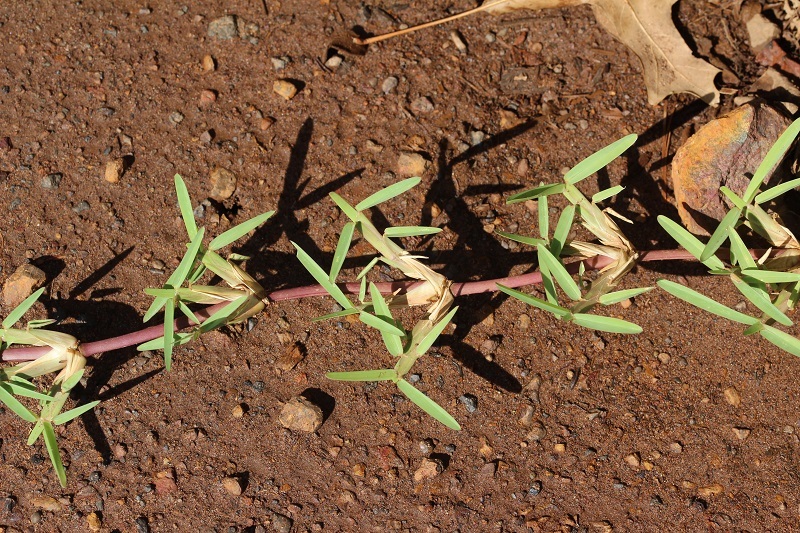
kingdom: Plantae
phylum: Tracheophyta
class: Liliopsida
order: Poales
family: Poaceae
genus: Stenotaphrum
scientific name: Stenotaphrum secundatum
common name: St. augustine grass
